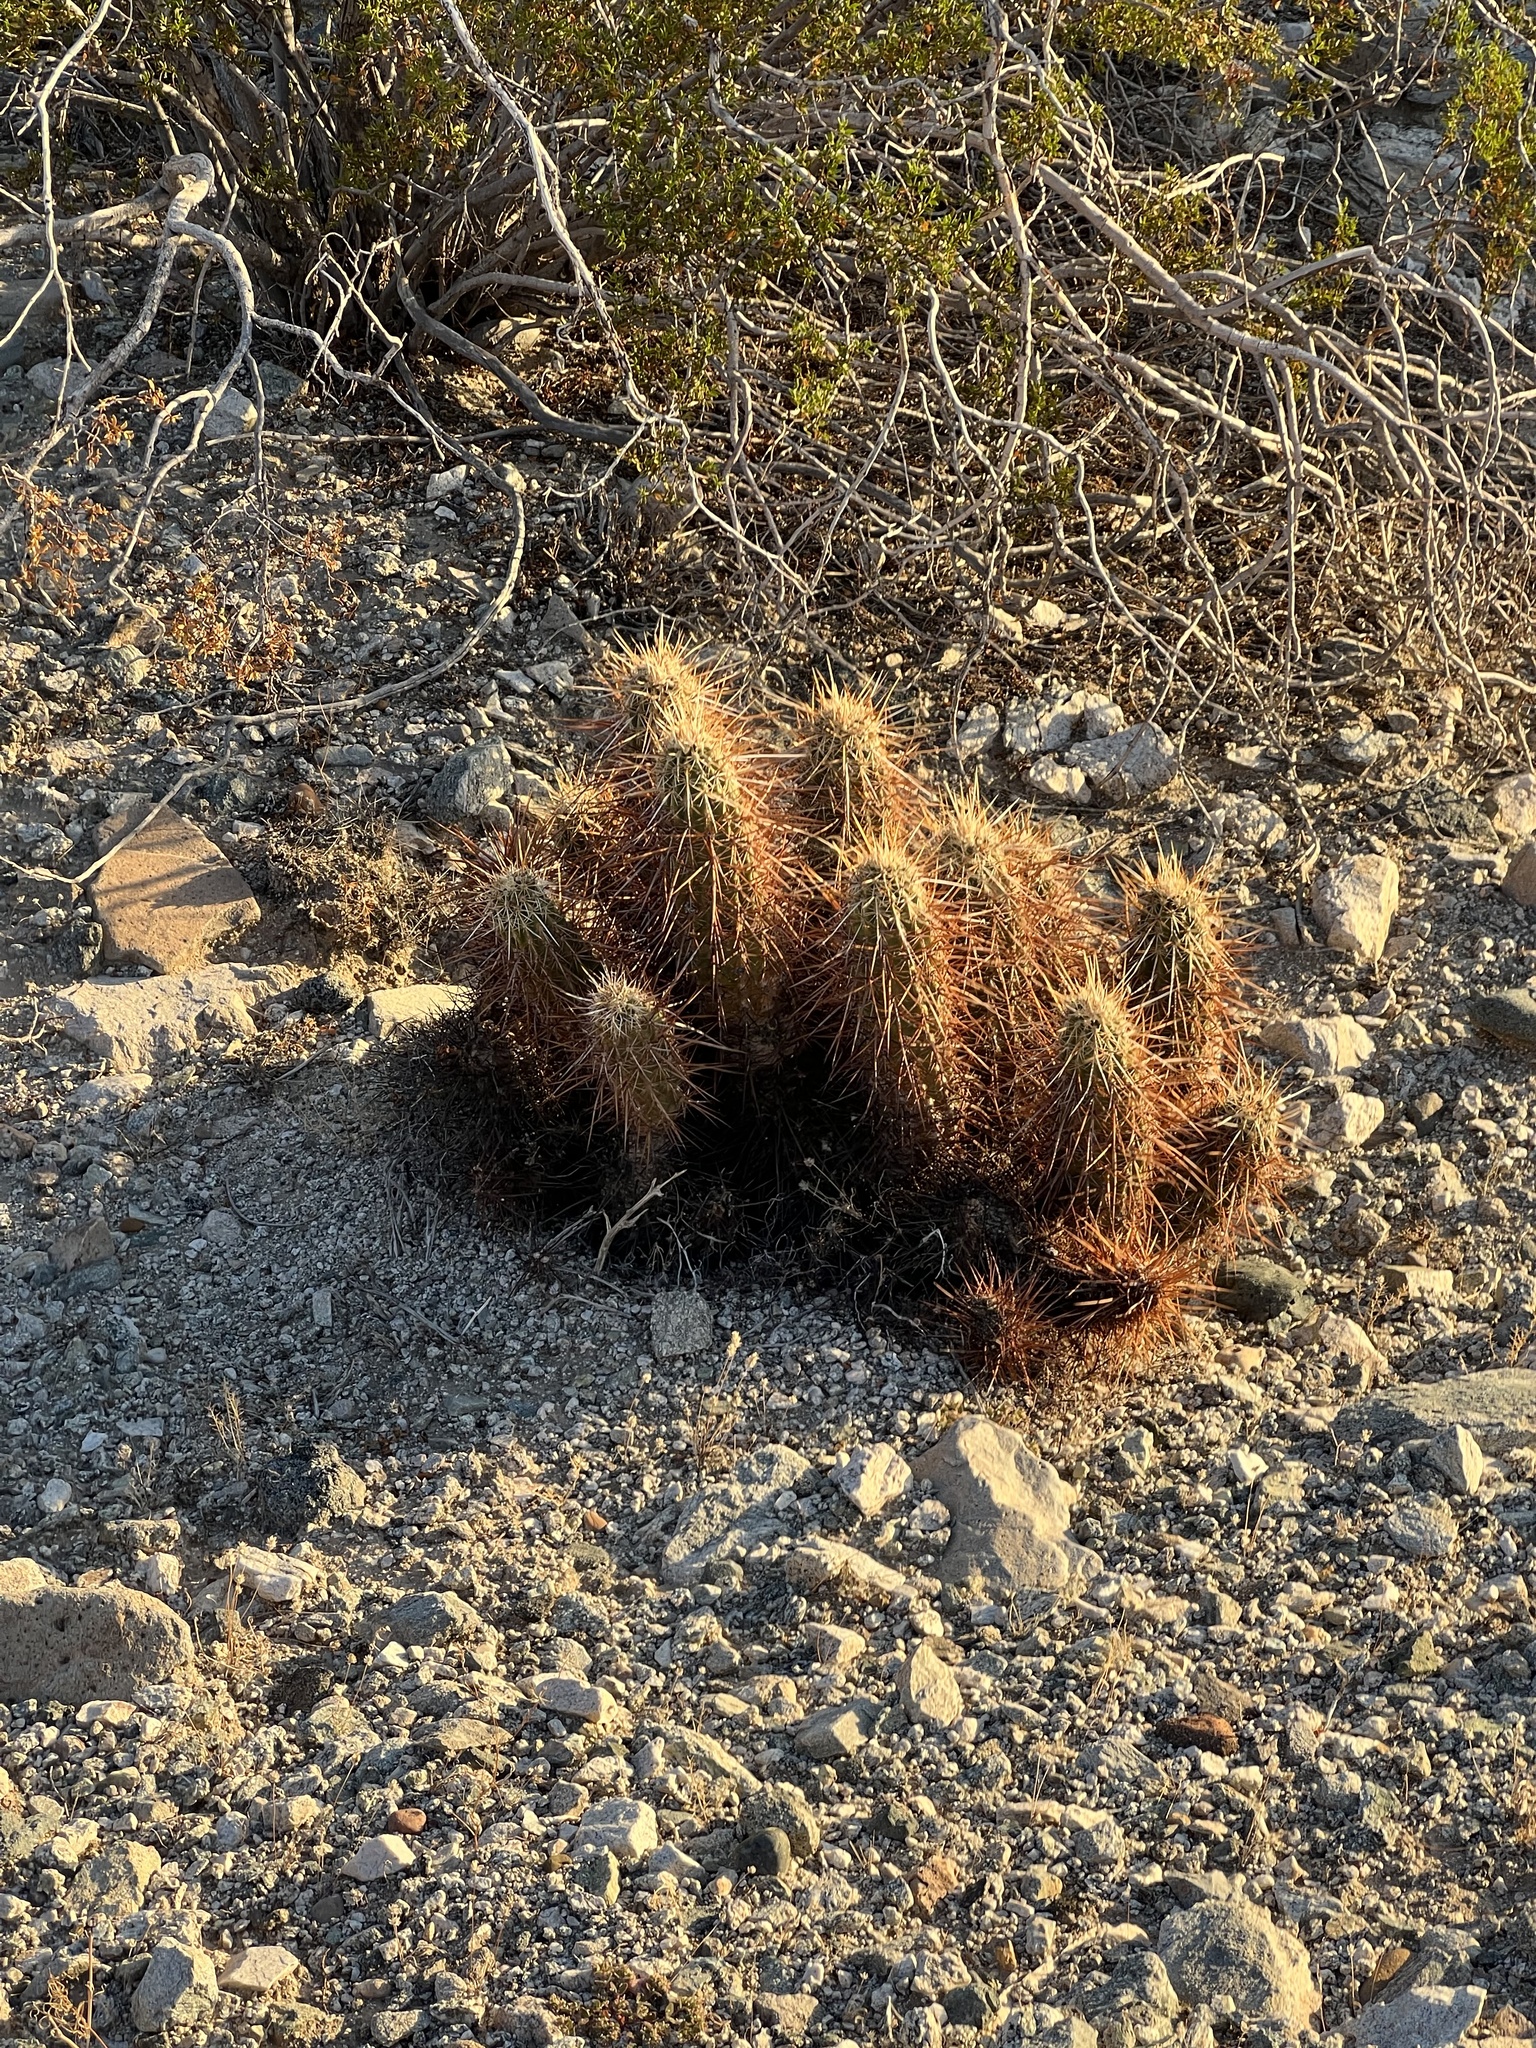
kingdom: Plantae
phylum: Tracheophyta
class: Magnoliopsida
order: Caryophyllales
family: Cactaceae
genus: Echinocereus
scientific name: Echinocereus engelmannii
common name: Engelmann's hedgehog cactus
